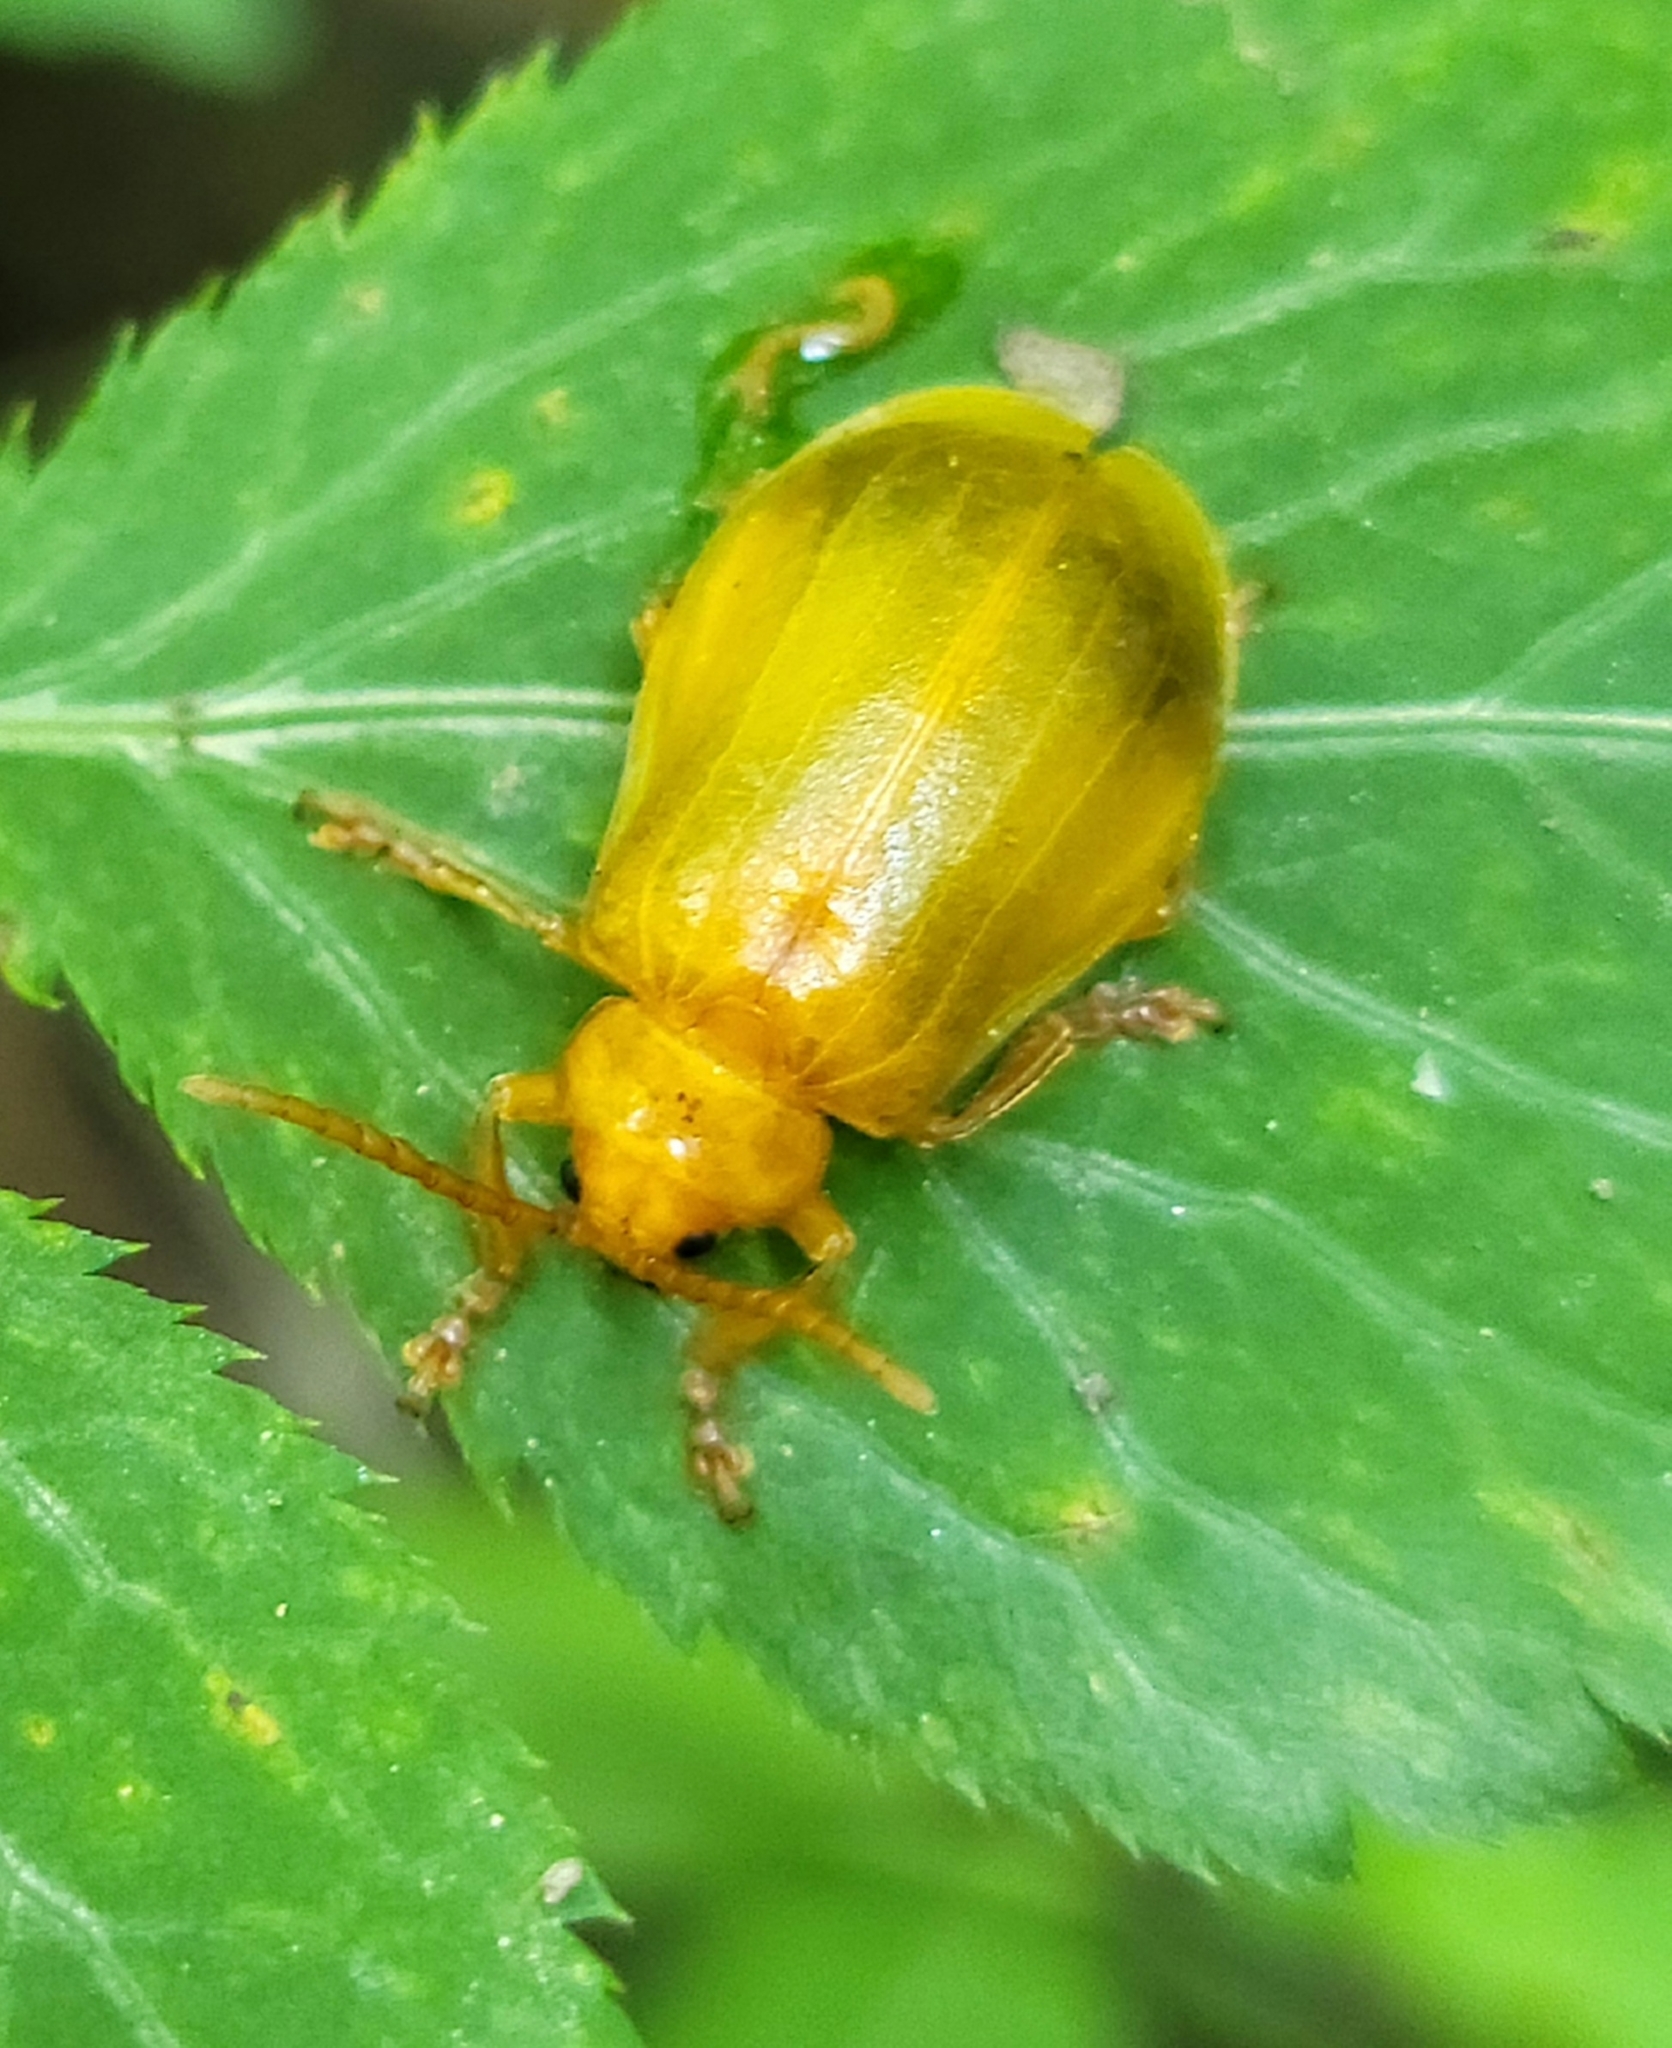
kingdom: Animalia
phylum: Arthropoda
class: Insecta
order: Coleoptera
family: Chrysomelidae
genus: Monocesta
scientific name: Monocesta coryli
